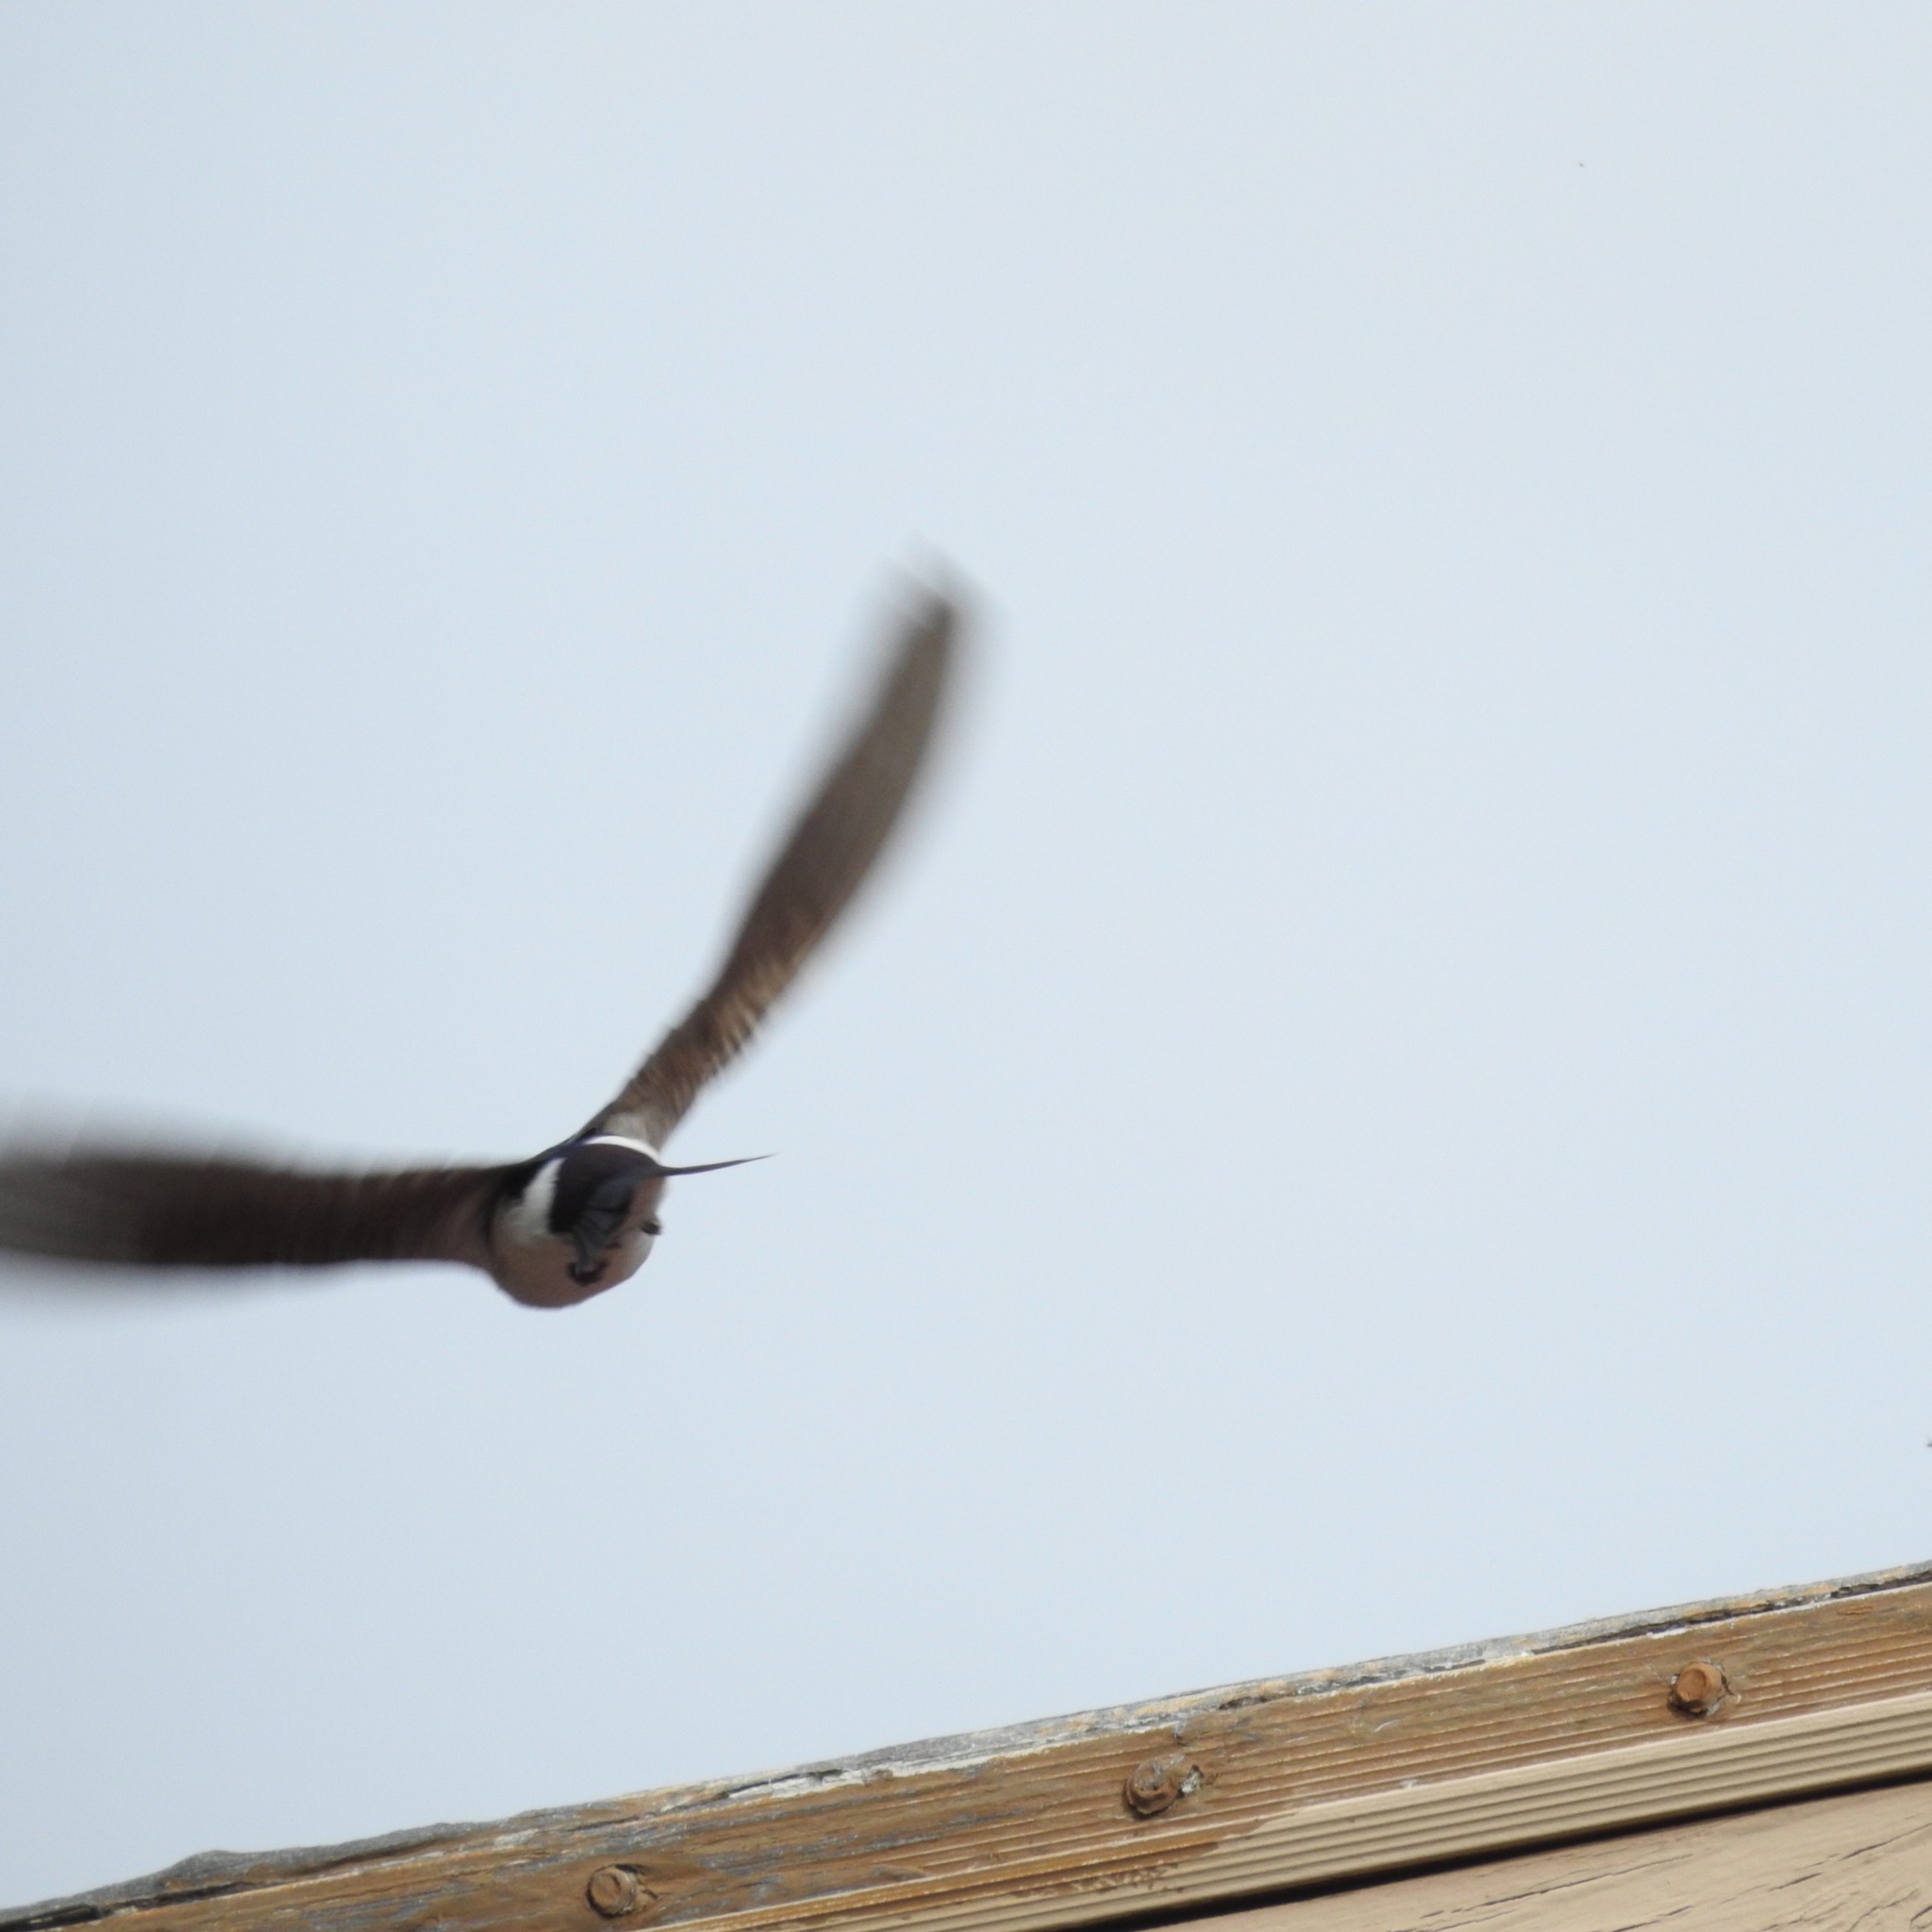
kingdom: Animalia
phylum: Chordata
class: Aves
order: Passeriformes
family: Hirundinidae
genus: Tachycineta
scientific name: Tachycineta thalassina
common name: Violet-green swallow
